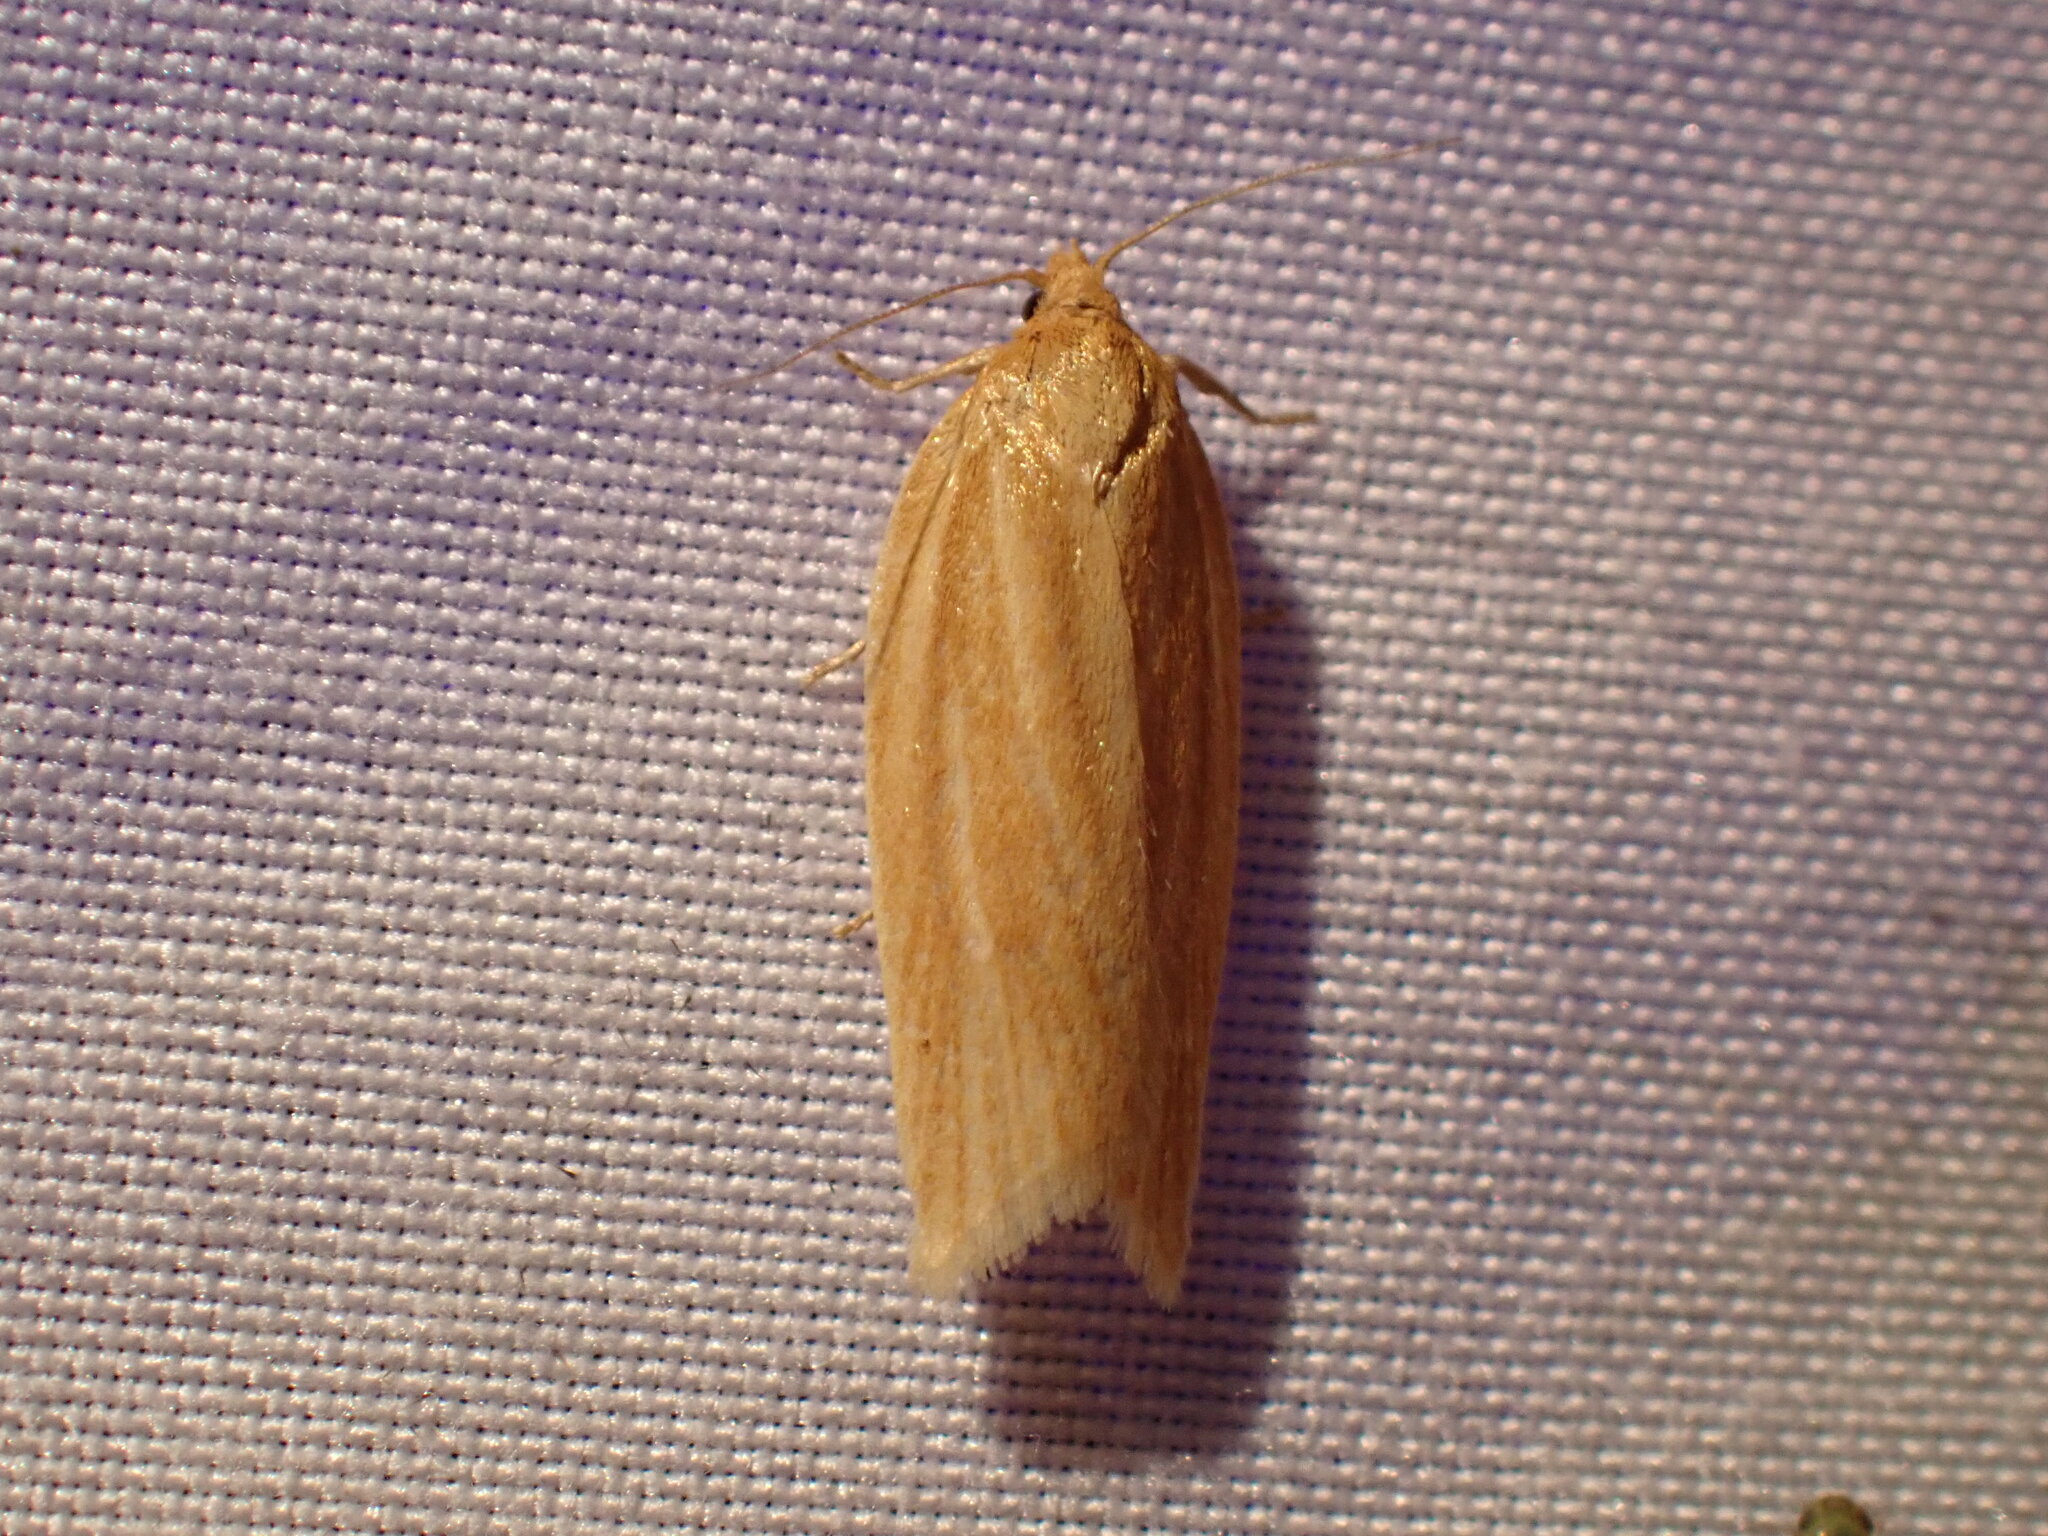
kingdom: Animalia
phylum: Arthropoda
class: Insecta
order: Lepidoptera
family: Tortricidae
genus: Clepsis
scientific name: Clepsis clemensiana
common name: Clemens' clepsis moth
